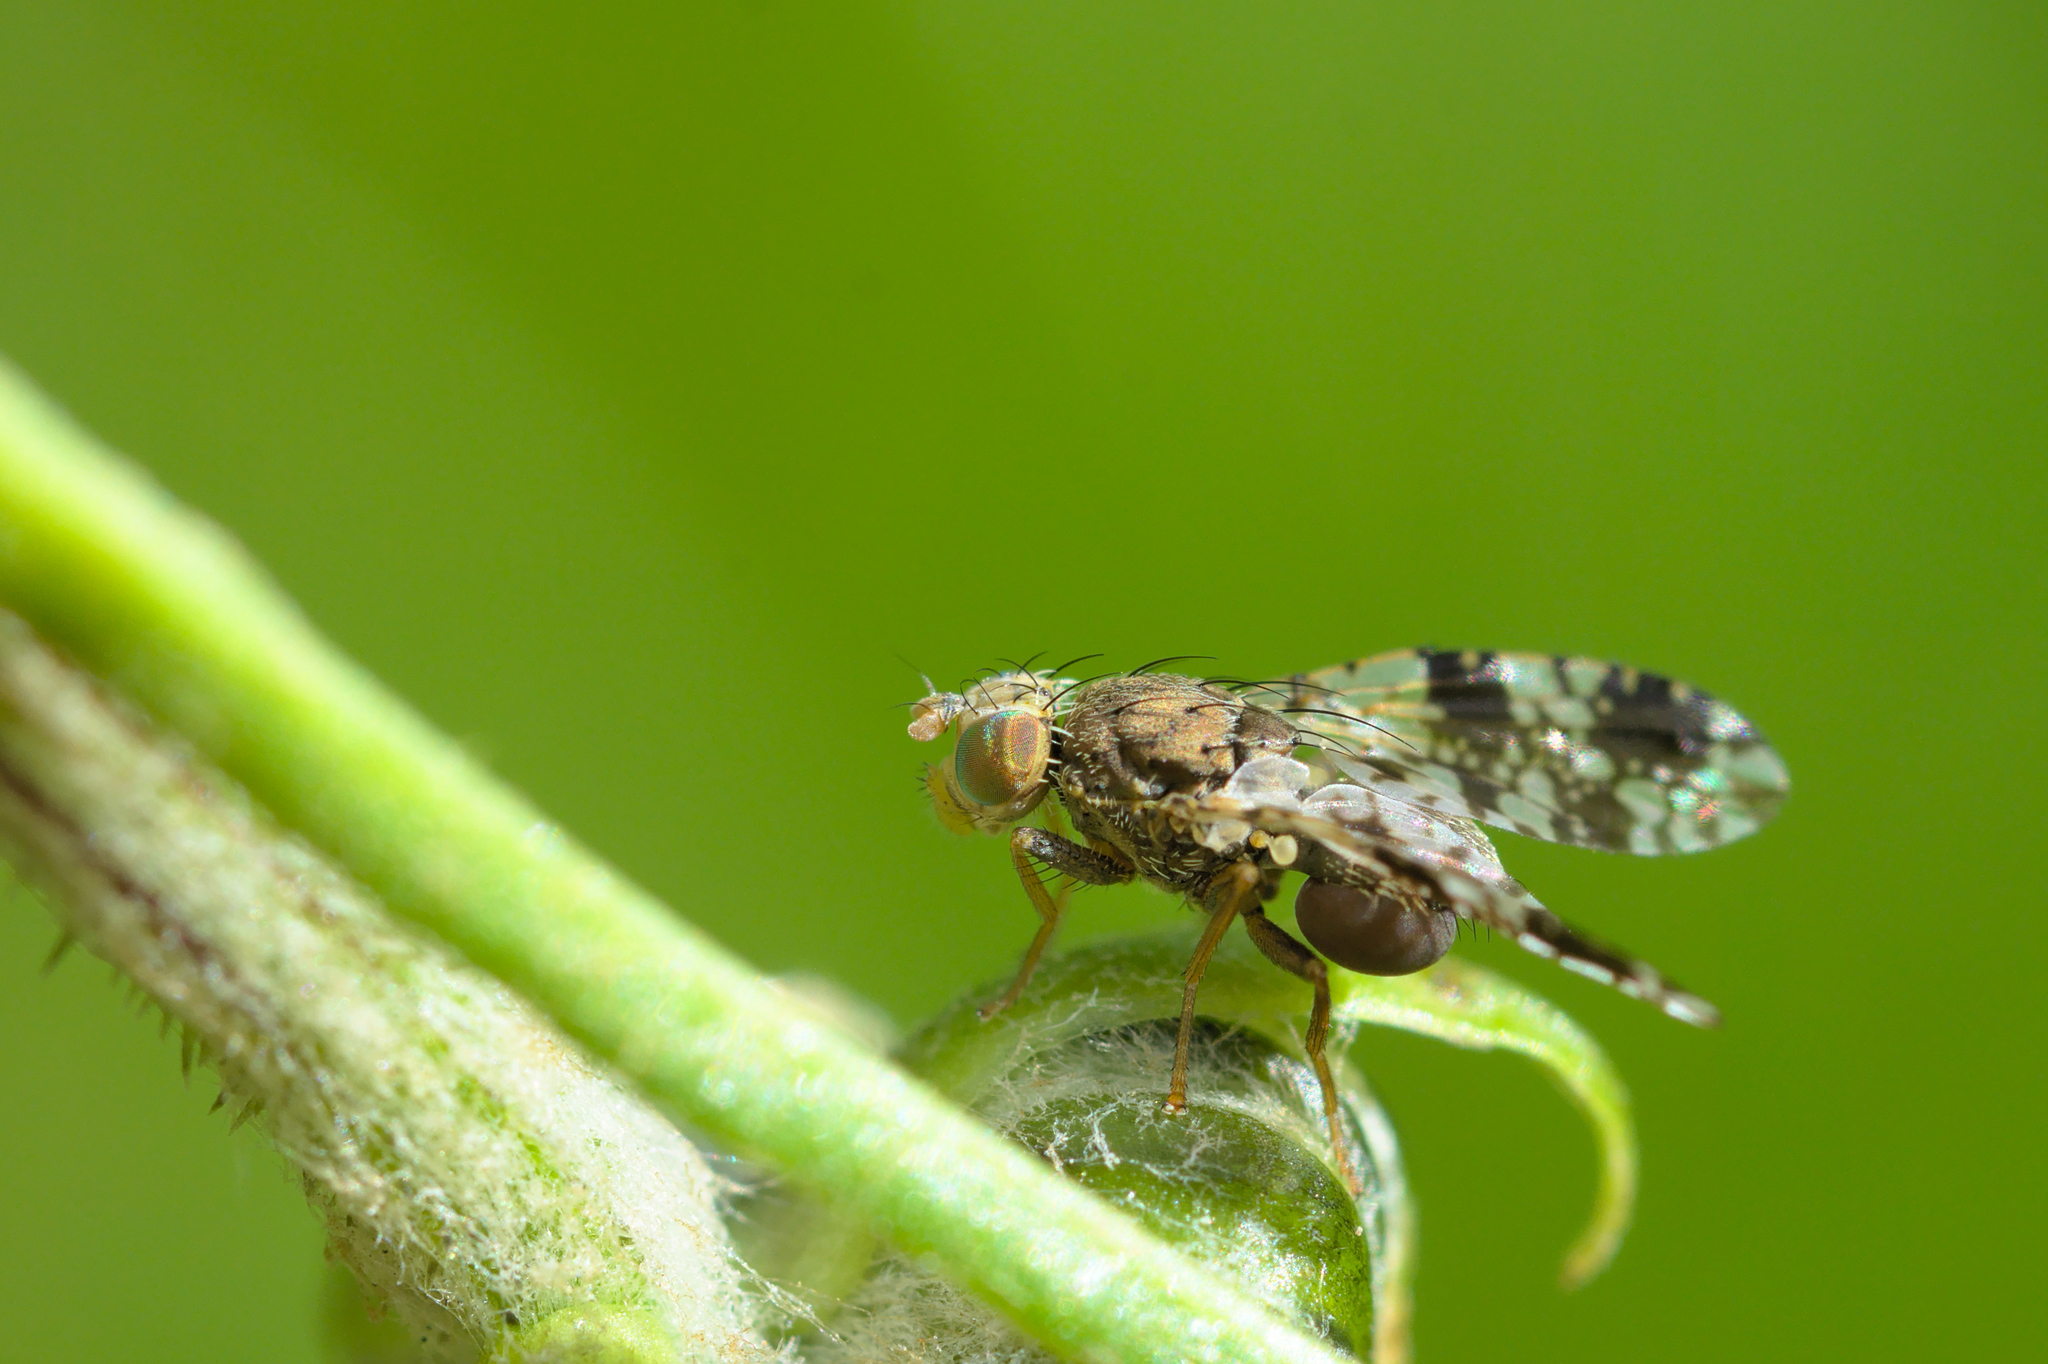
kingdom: Animalia
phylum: Arthropoda
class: Insecta
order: Diptera
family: Tephritidae
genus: Tephritis
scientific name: Tephritis crepidis
